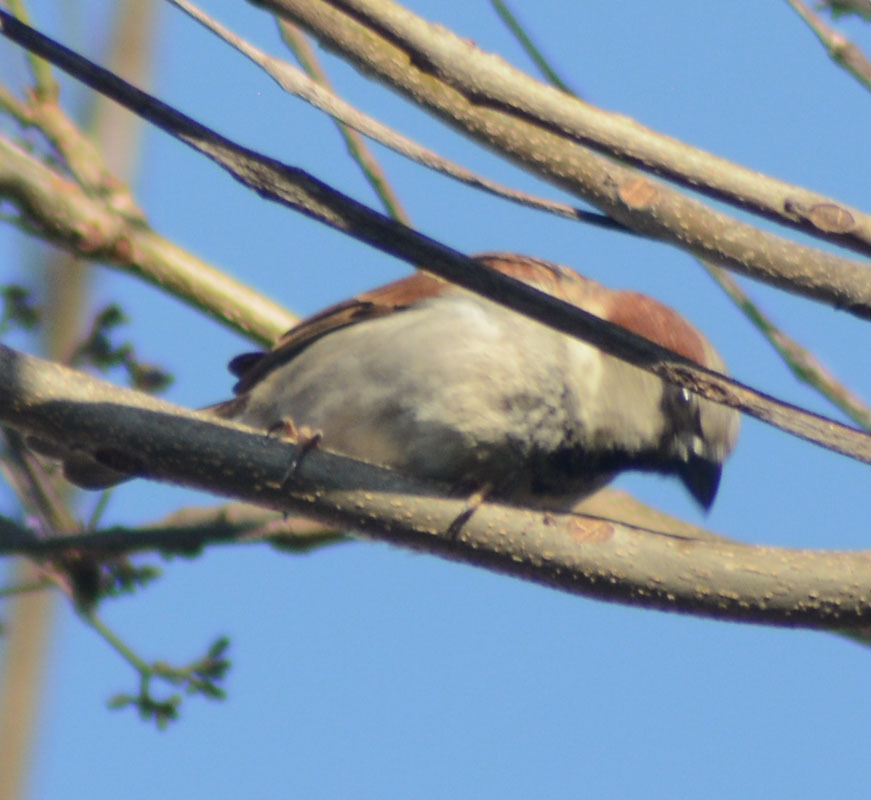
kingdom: Animalia
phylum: Chordata
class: Aves
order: Passeriformes
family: Passeridae
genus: Passer
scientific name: Passer domesticus
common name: House sparrow
